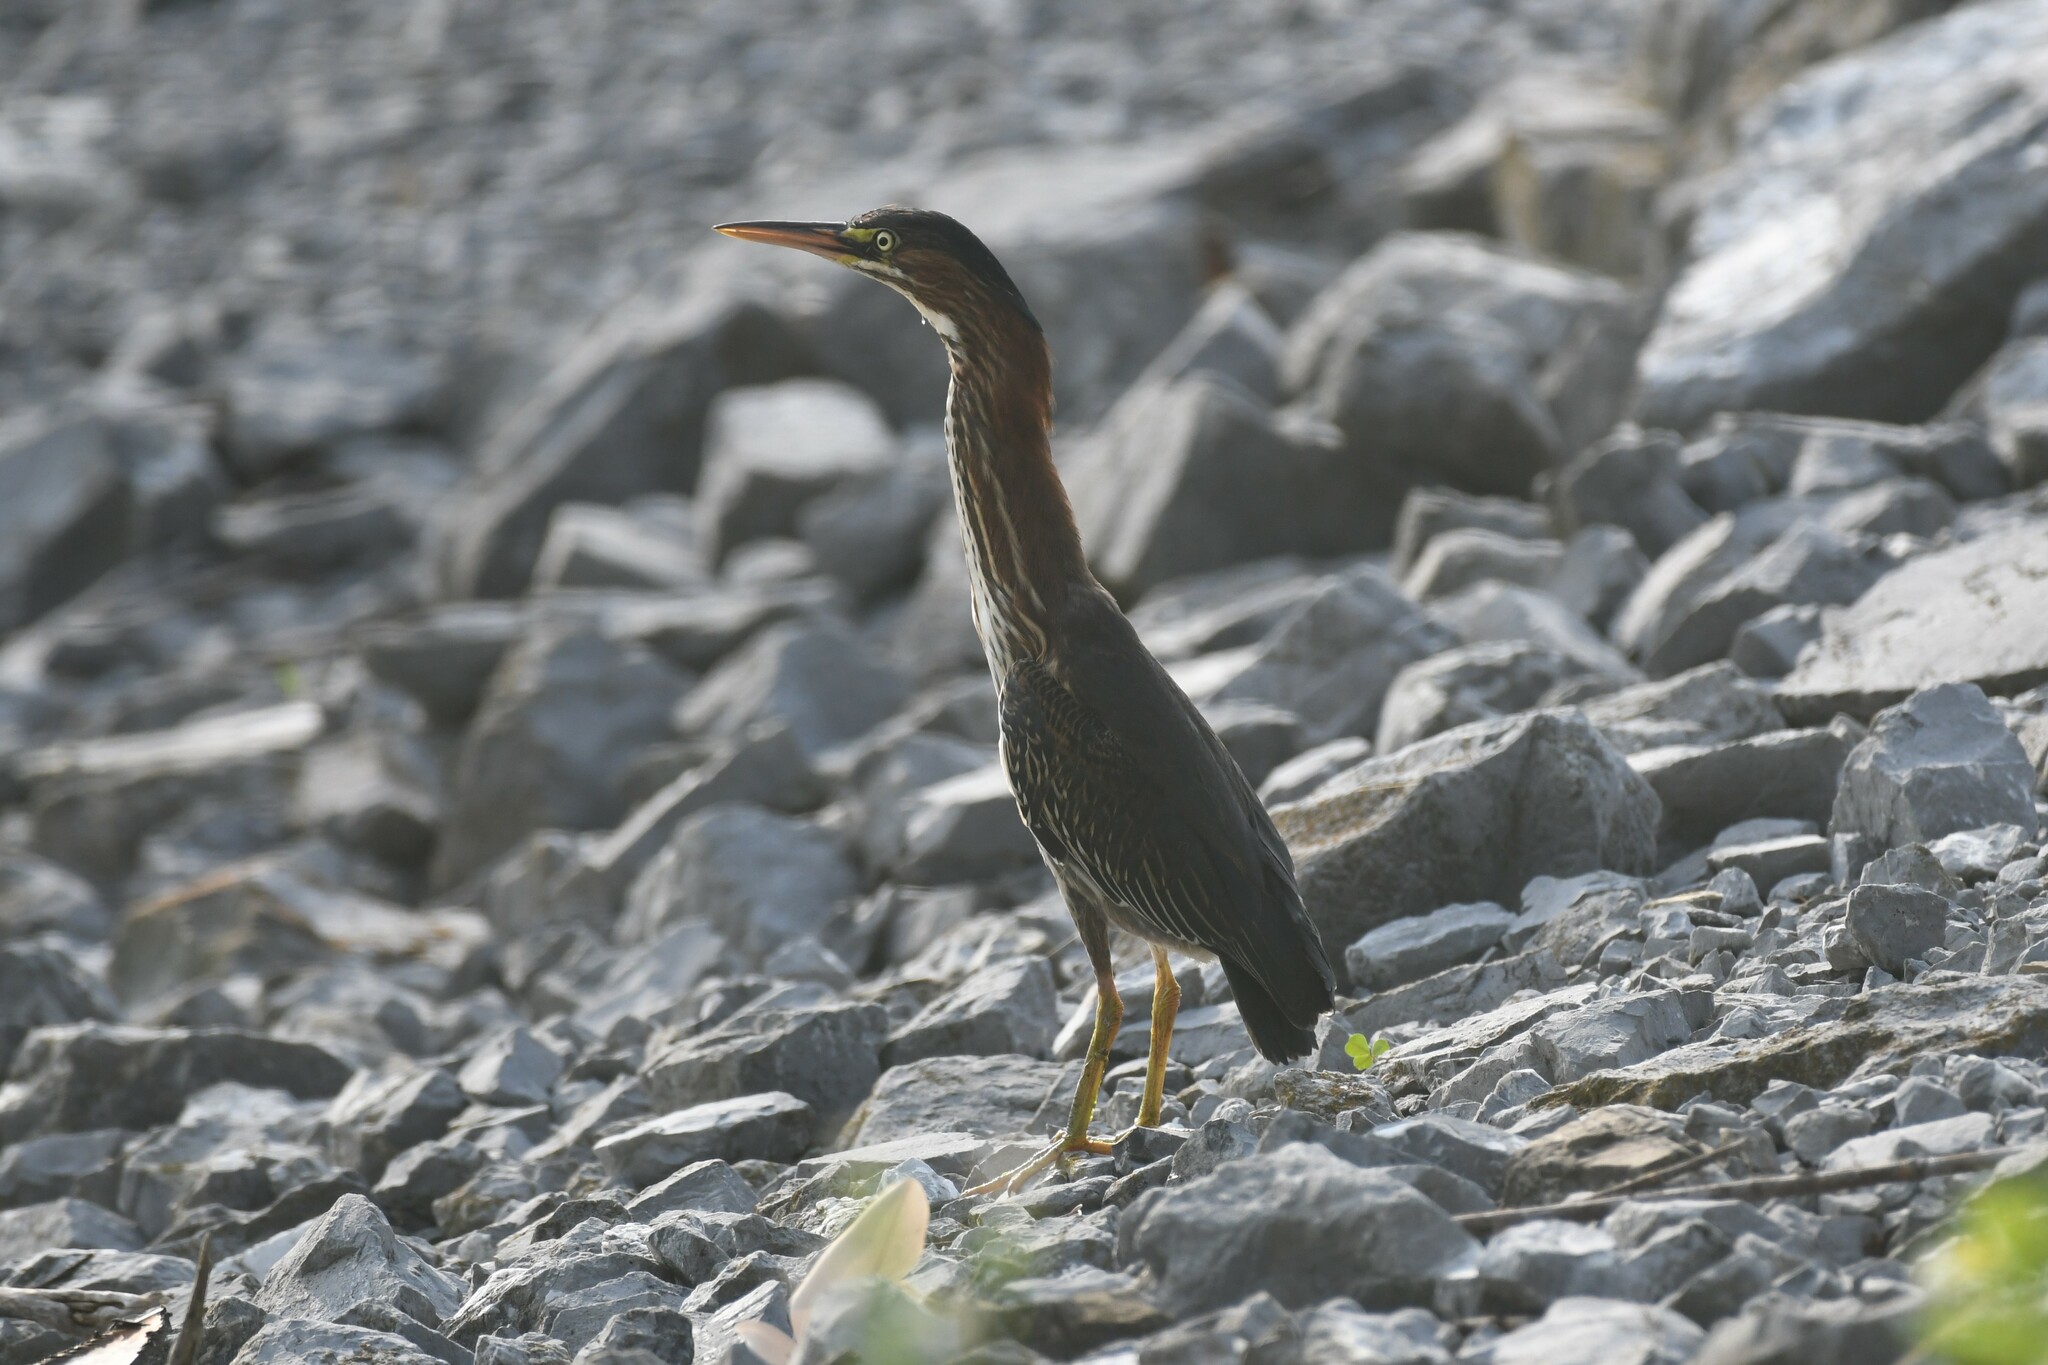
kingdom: Animalia
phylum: Chordata
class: Aves
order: Pelecaniformes
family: Ardeidae
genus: Butorides
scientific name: Butorides virescens
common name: Green heron
